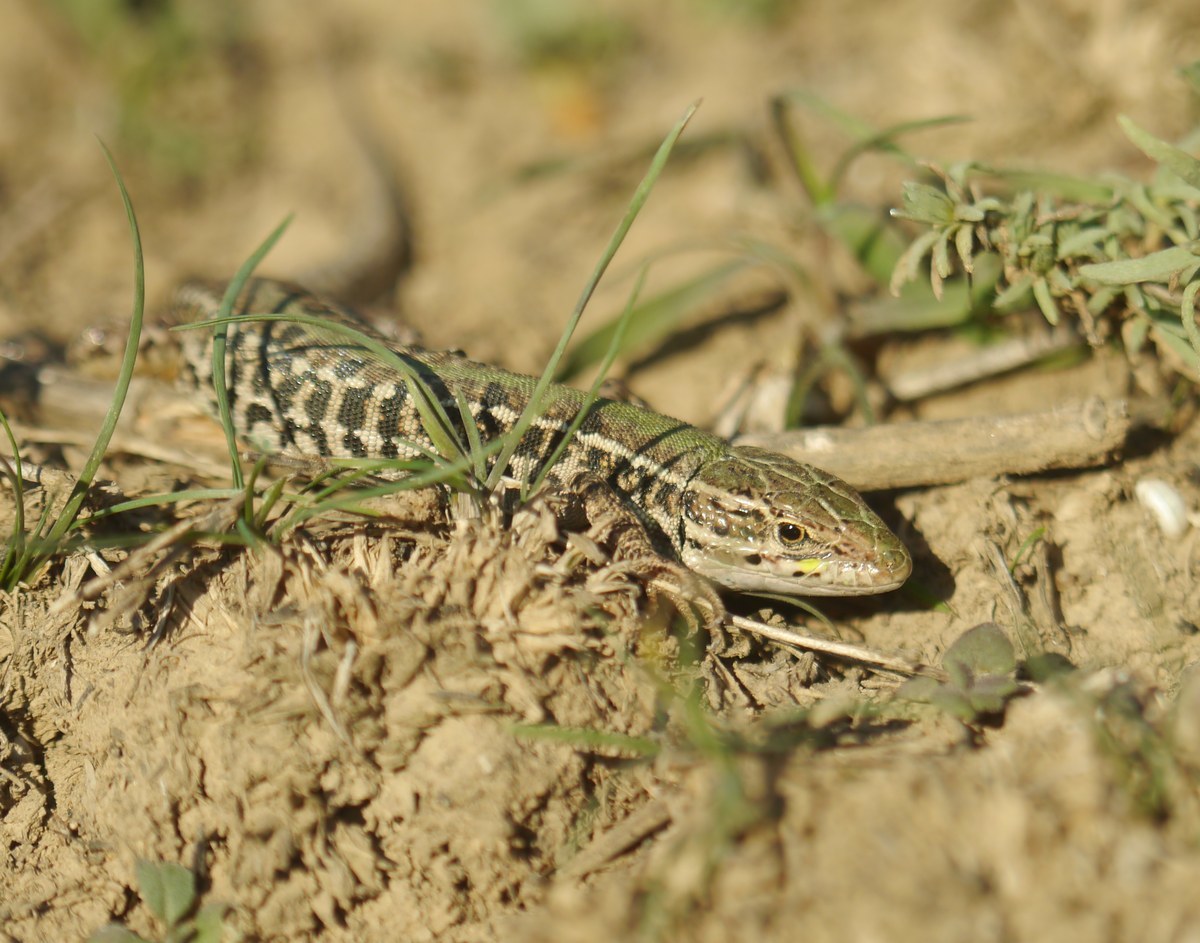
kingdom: Animalia
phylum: Chordata
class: Squamata
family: Lacertidae
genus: Podarcis
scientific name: Podarcis tauricus
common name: Balkan wall lizard
